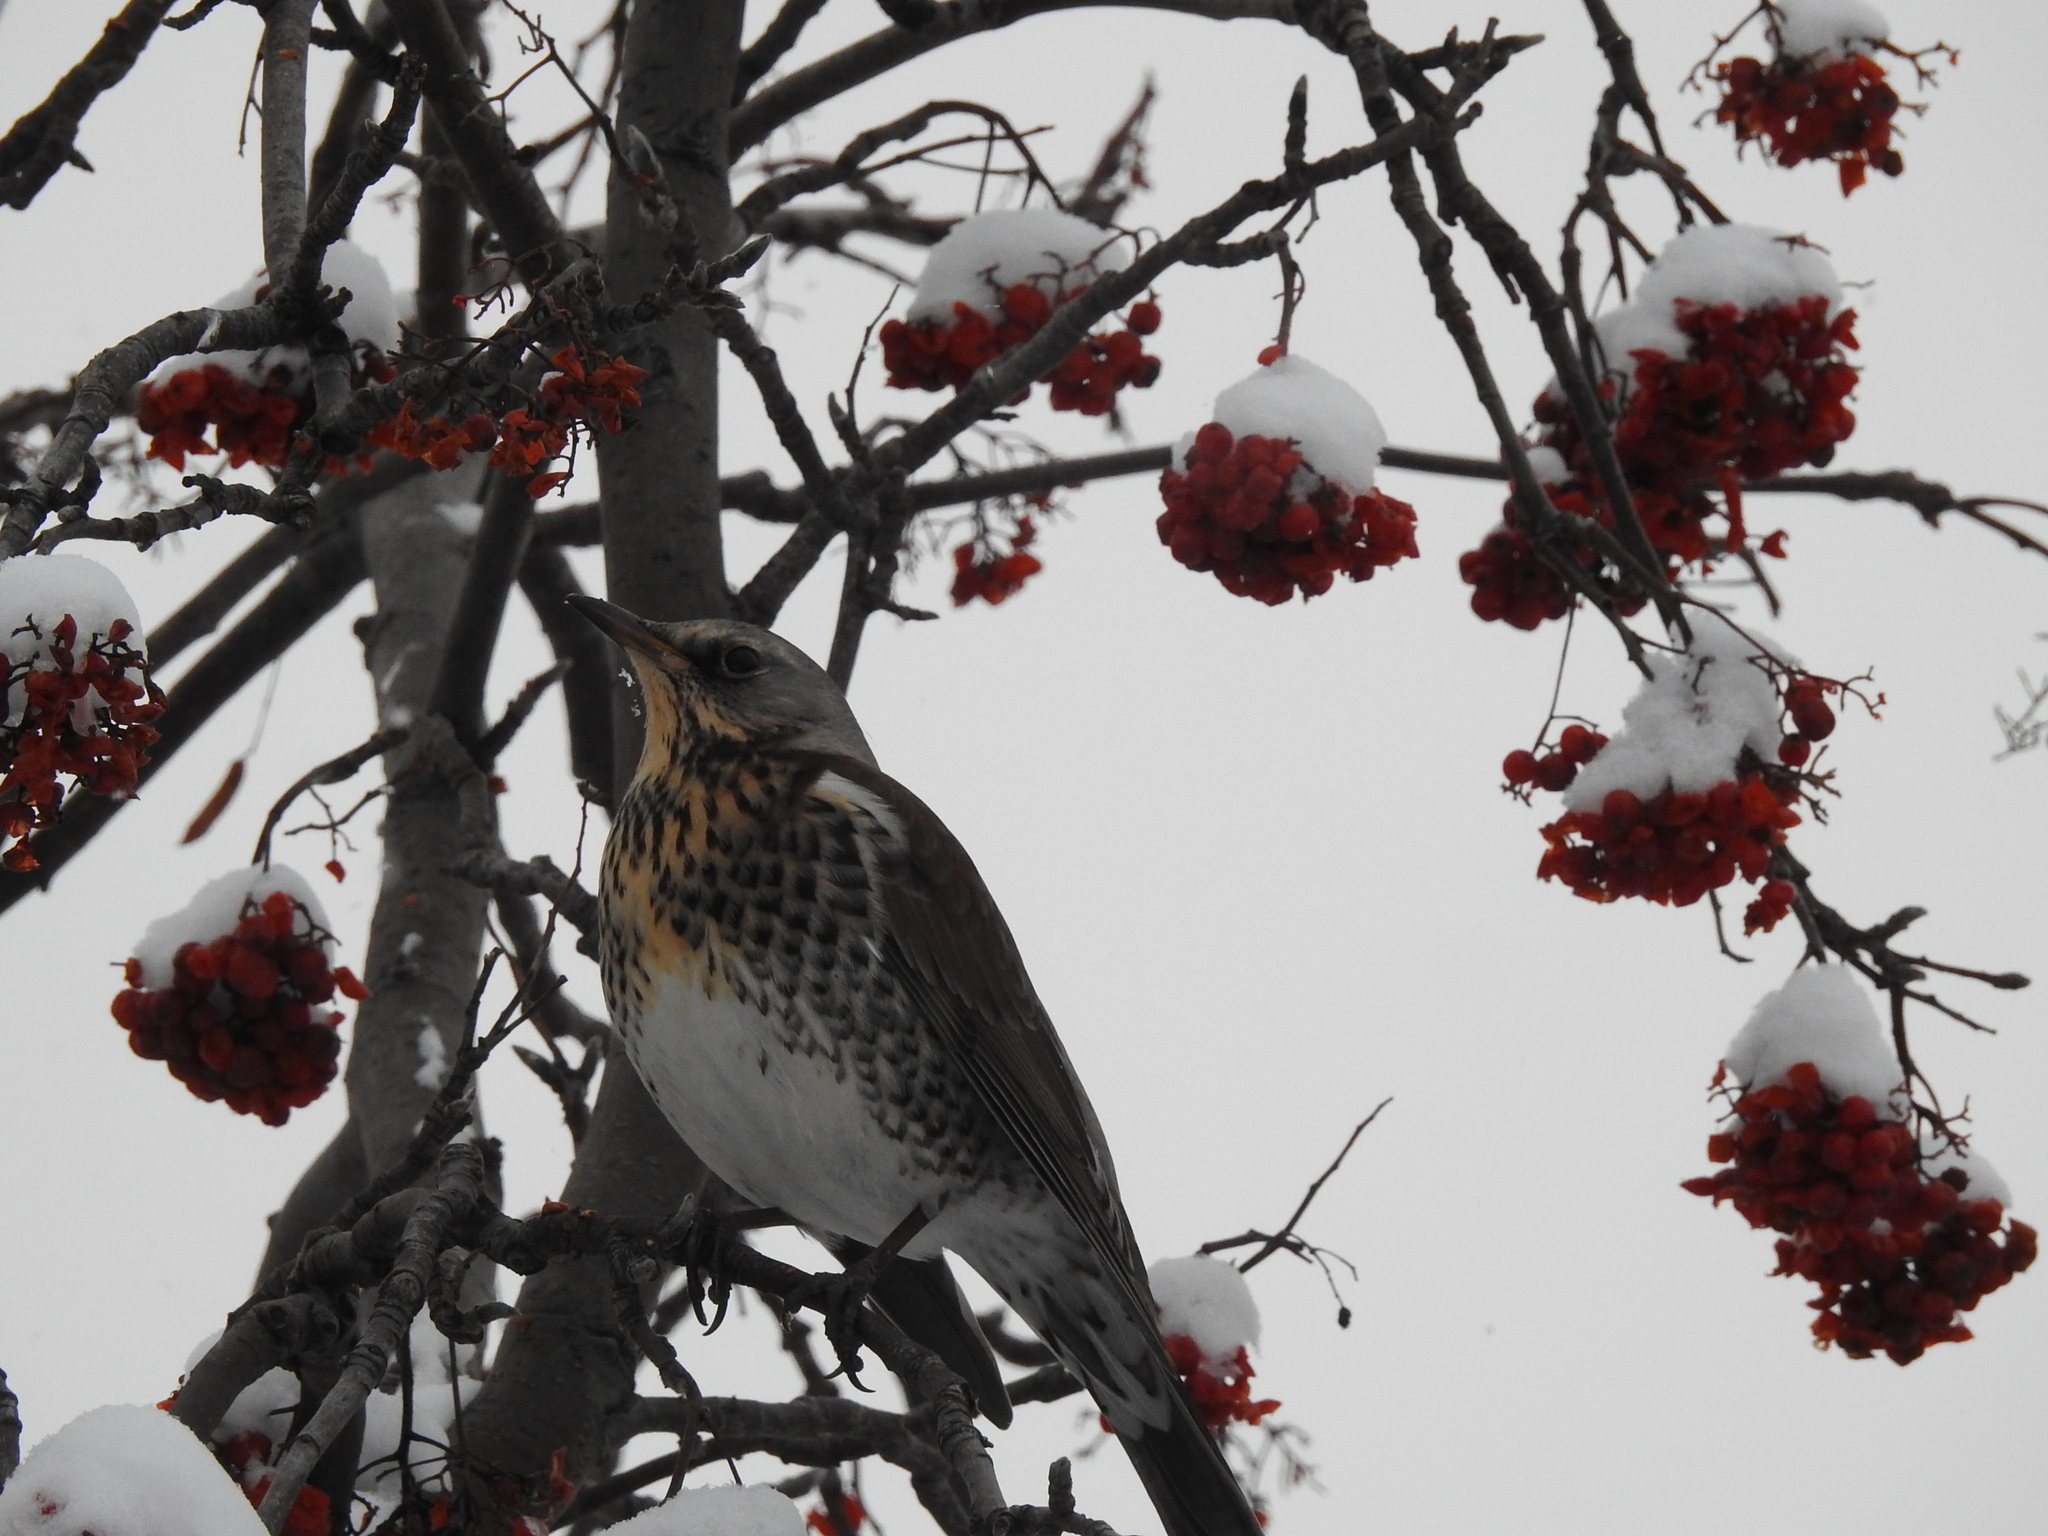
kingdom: Animalia
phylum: Chordata
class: Aves
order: Passeriformes
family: Turdidae
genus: Turdus
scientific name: Turdus pilaris
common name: Fieldfare
